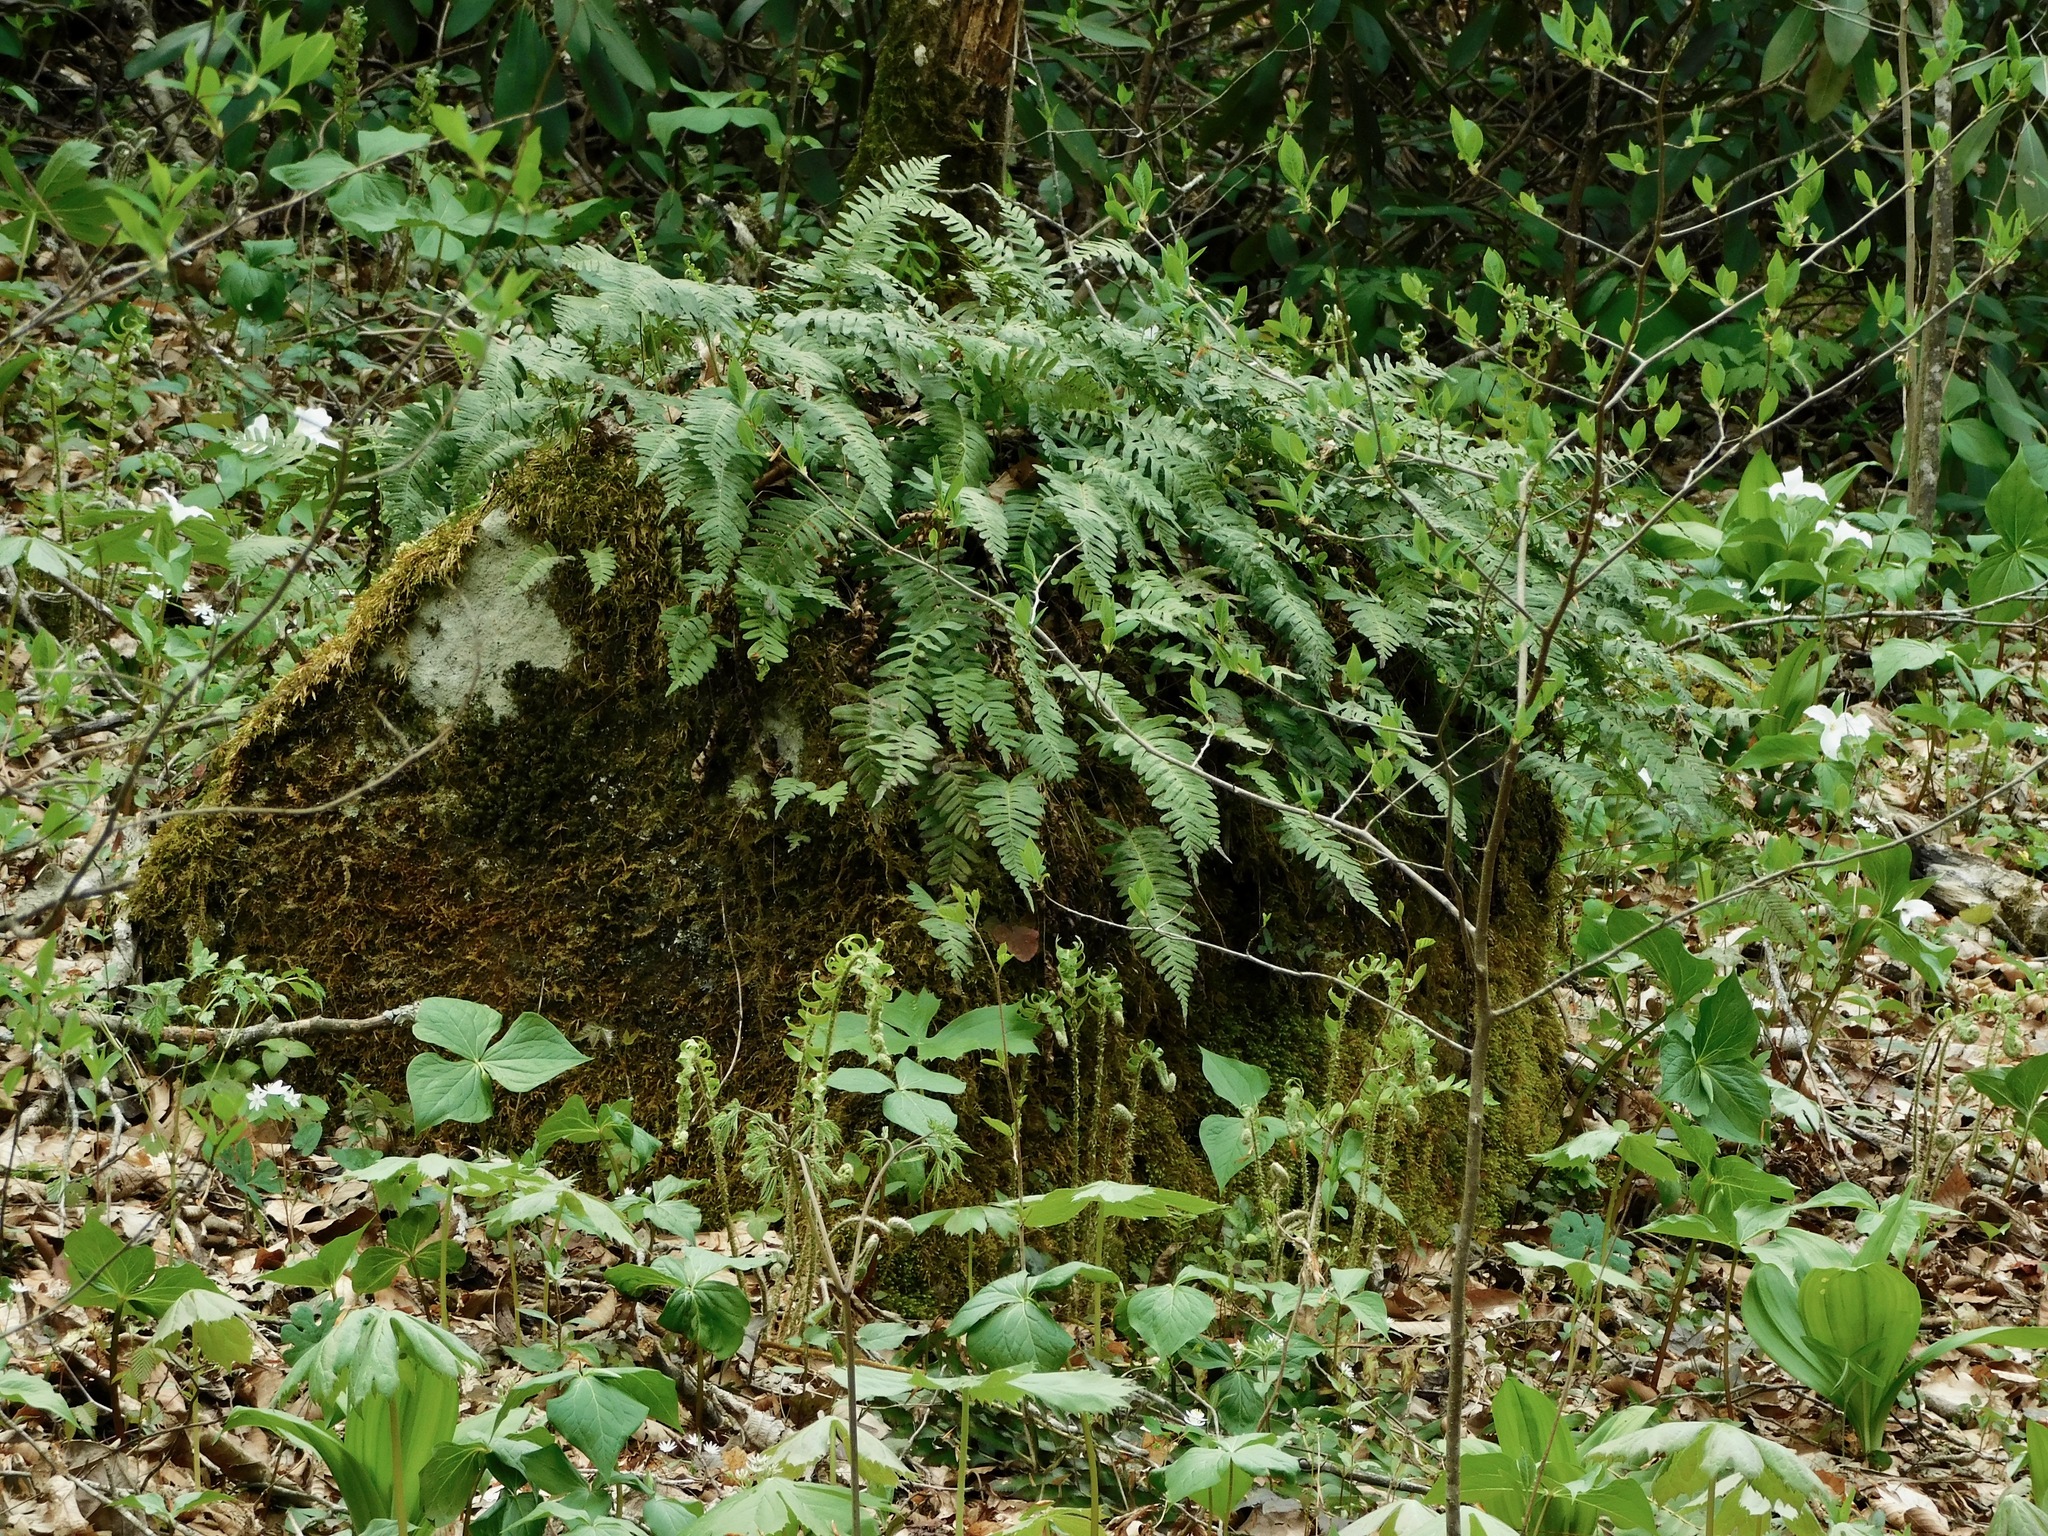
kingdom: Plantae
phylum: Tracheophyta
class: Polypodiopsida
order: Polypodiales
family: Polypodiaceae
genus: Polypodium
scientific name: Polypodium virginianum
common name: American wall fern
